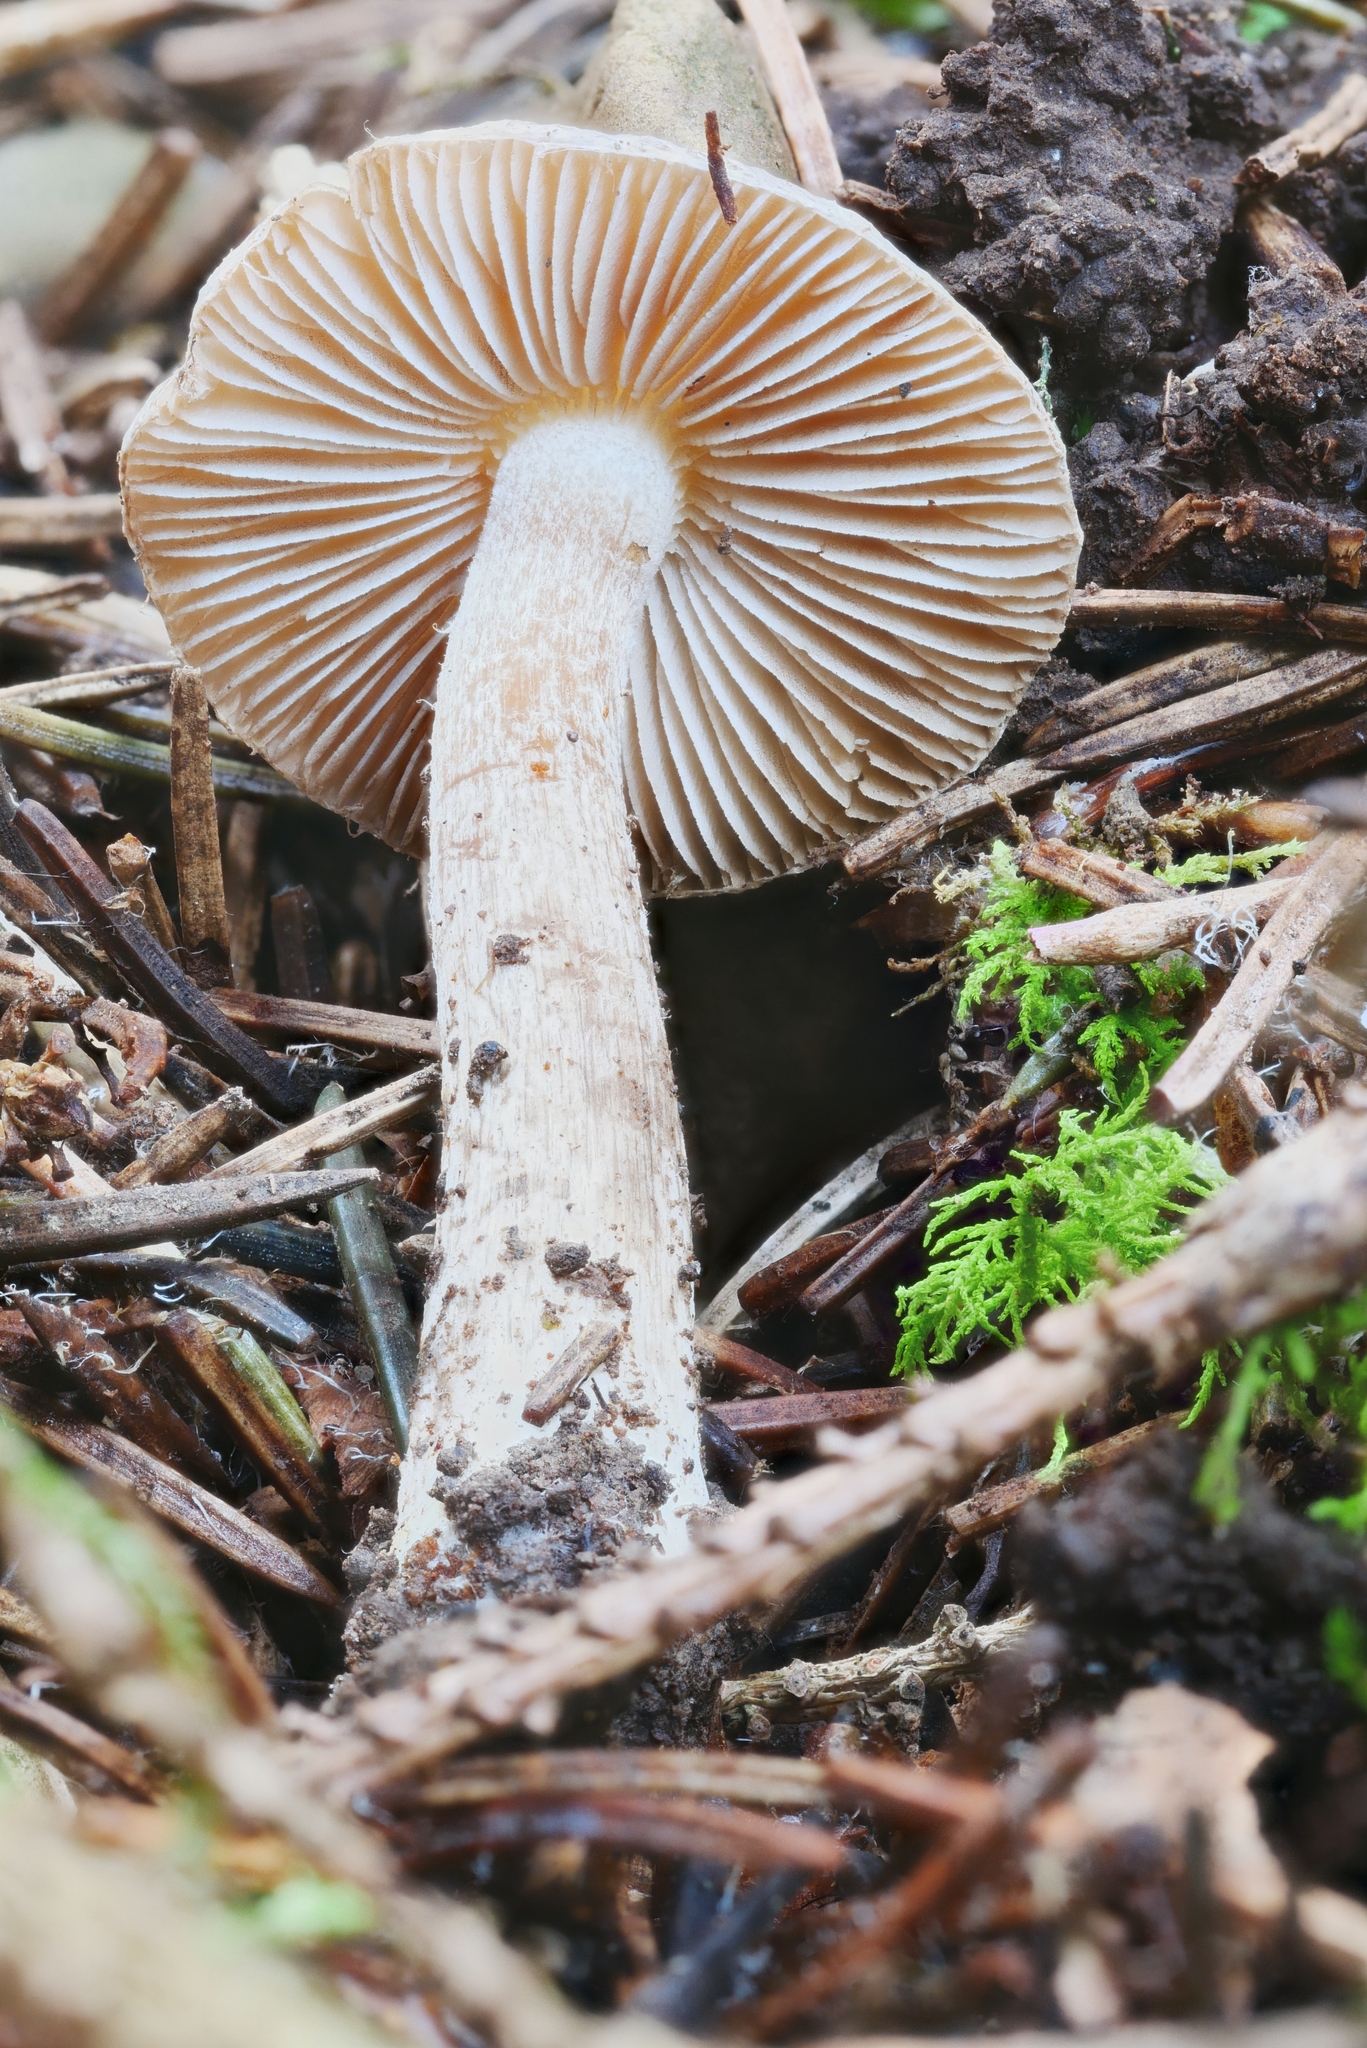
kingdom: Fungi
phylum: Basidiomycota
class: Agaricomycetes
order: Agaricales
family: Inocybaceae
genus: Inocybe
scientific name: Inocybe tetragonospora
